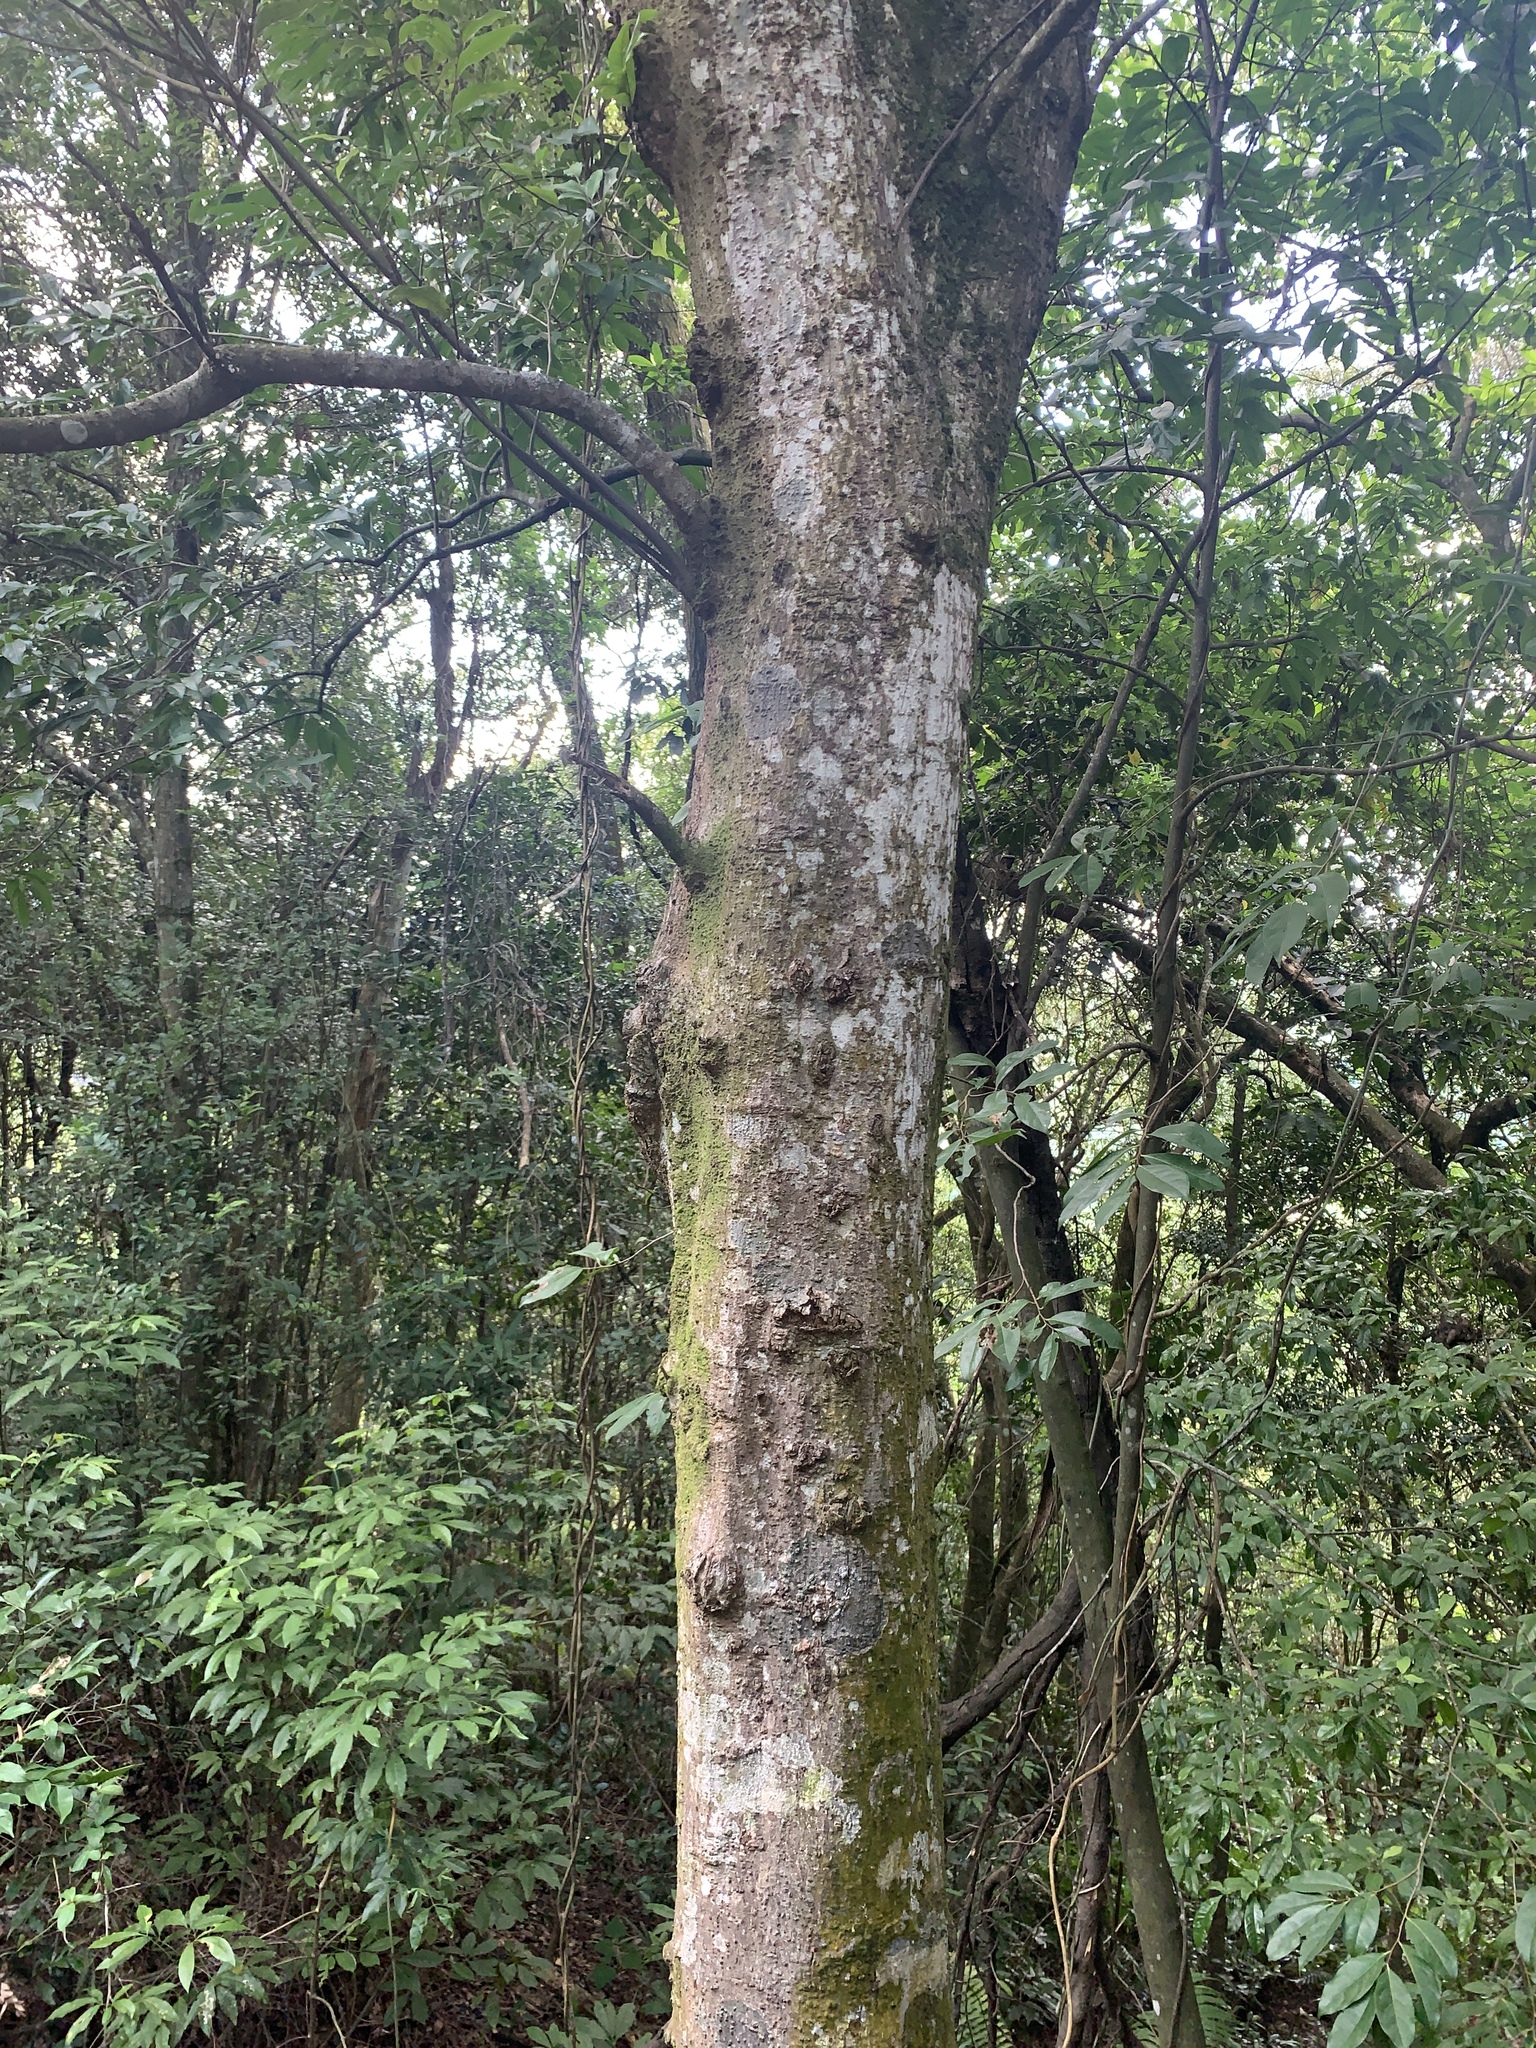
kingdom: Plantae
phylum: Tracheophyta
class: Magnoliopsida
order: Fagales
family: Fagaceae
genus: Castanopsis
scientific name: Castanopsis carlesii
